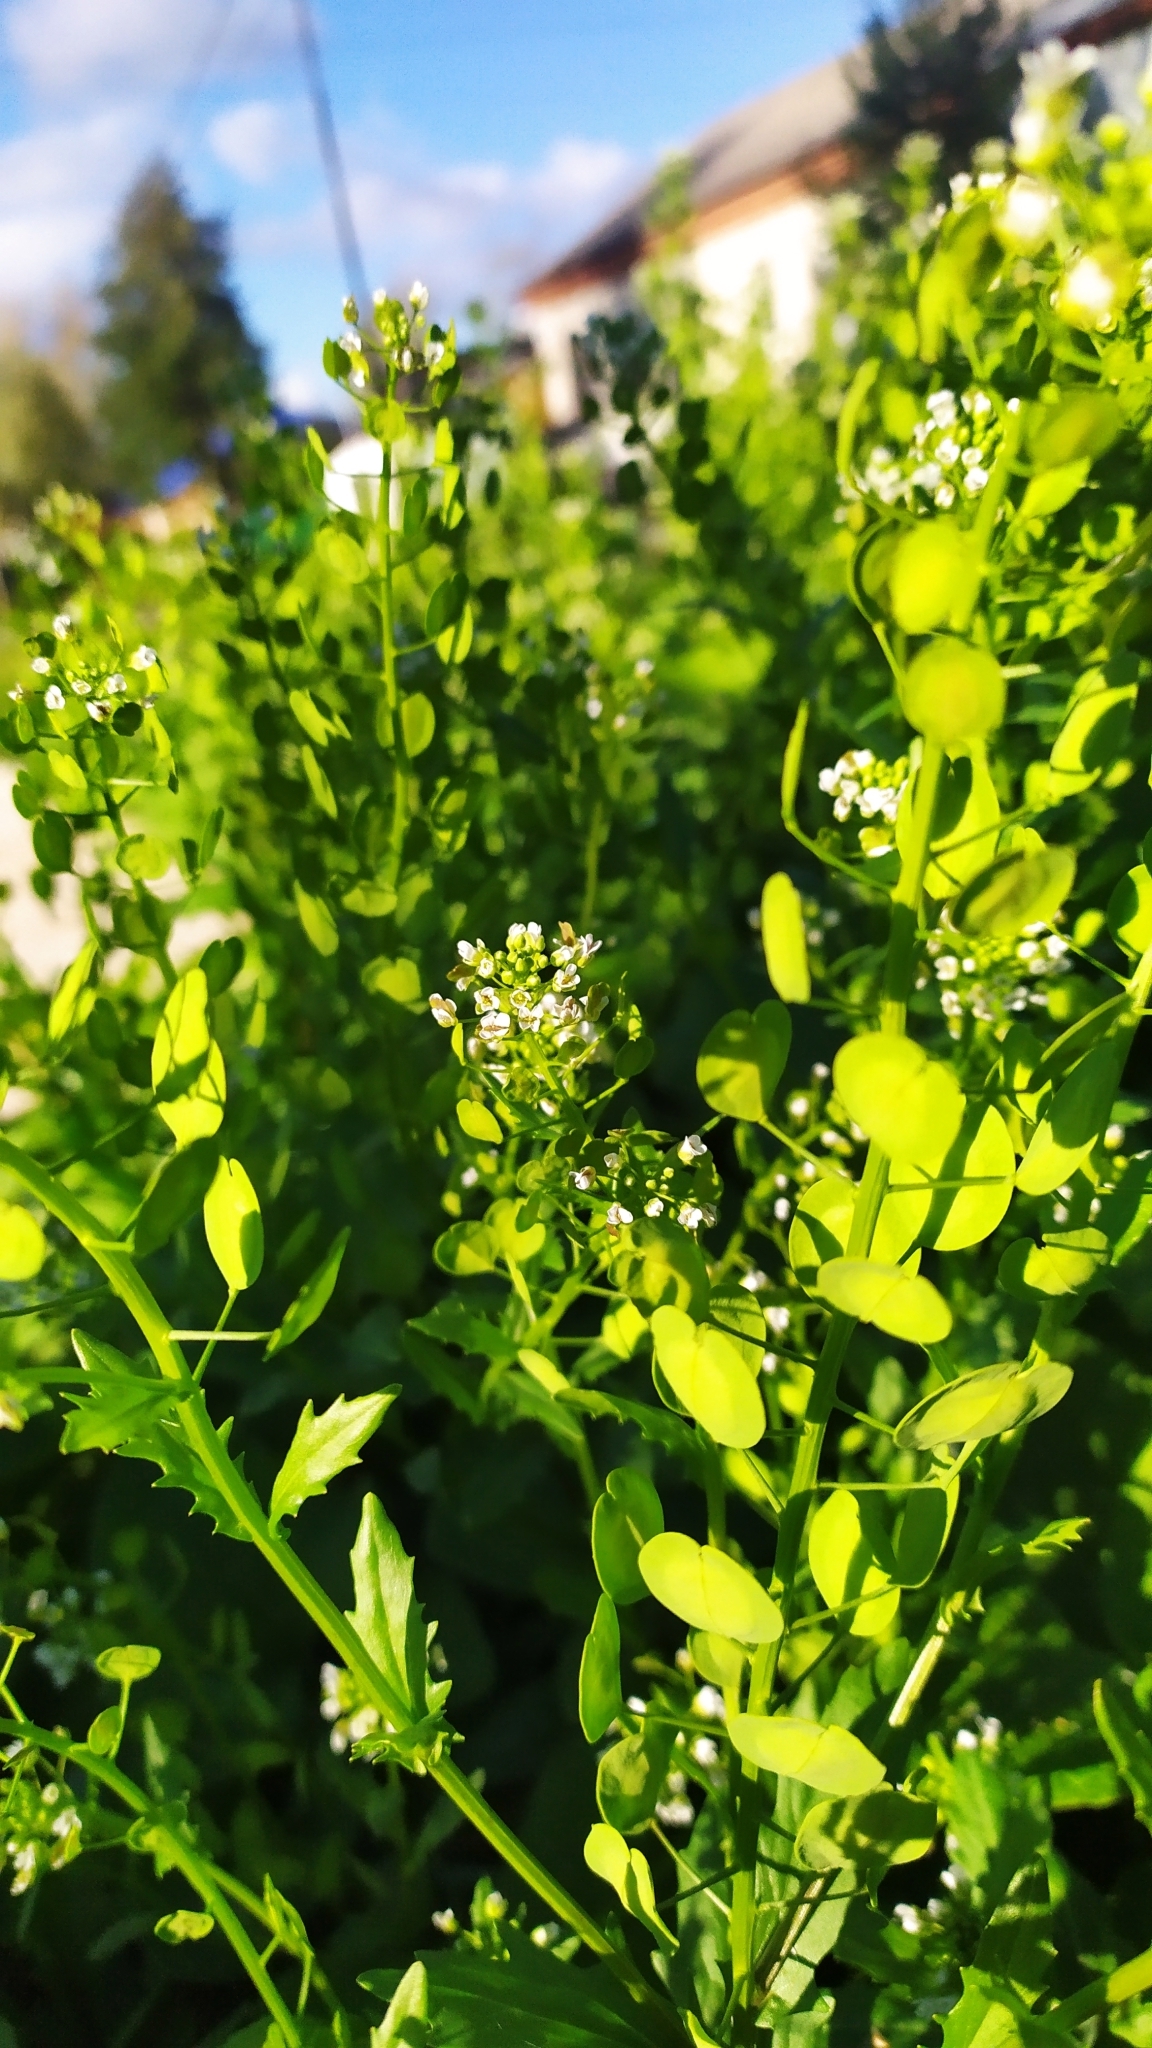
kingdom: Plantae
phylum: Tracheophyta
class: Magnoliopsida
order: Brassicales
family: Brassicaceae
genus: Thlaspi
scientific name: Thlaspi arvense
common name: Field pennycress
